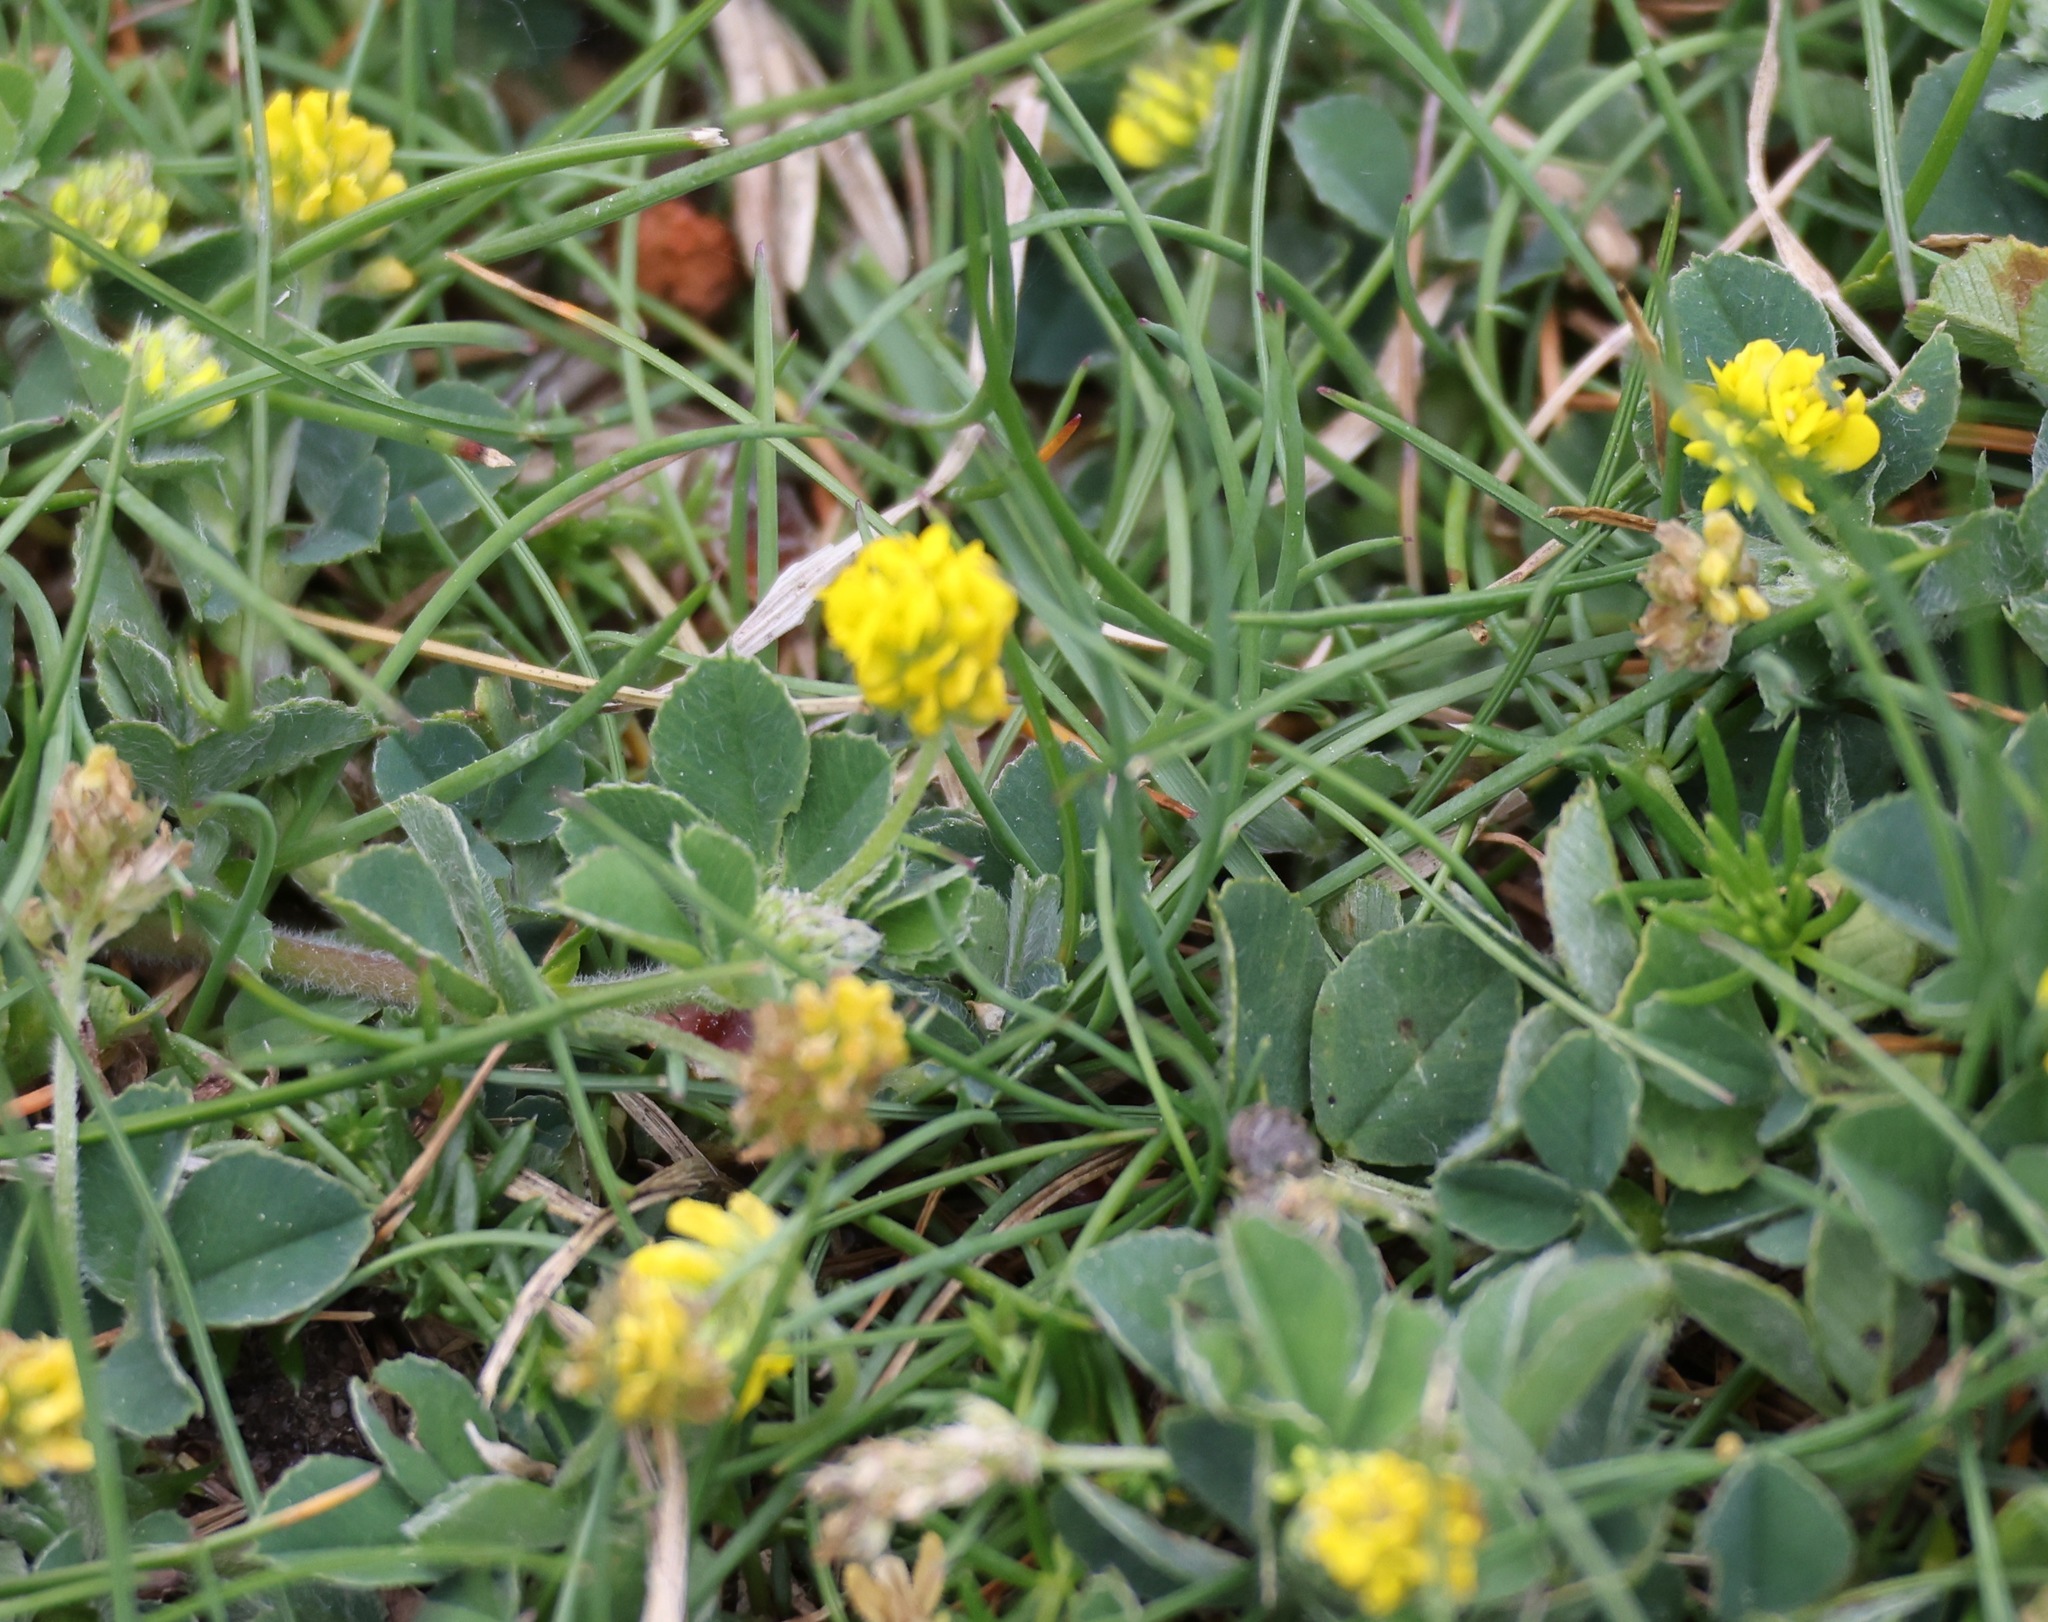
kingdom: Plantae
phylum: Tracheophyta
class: Magnoliopsida
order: Fabales
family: Fabaceae
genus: Medicago
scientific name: Medicago lupulina
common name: Black medick
